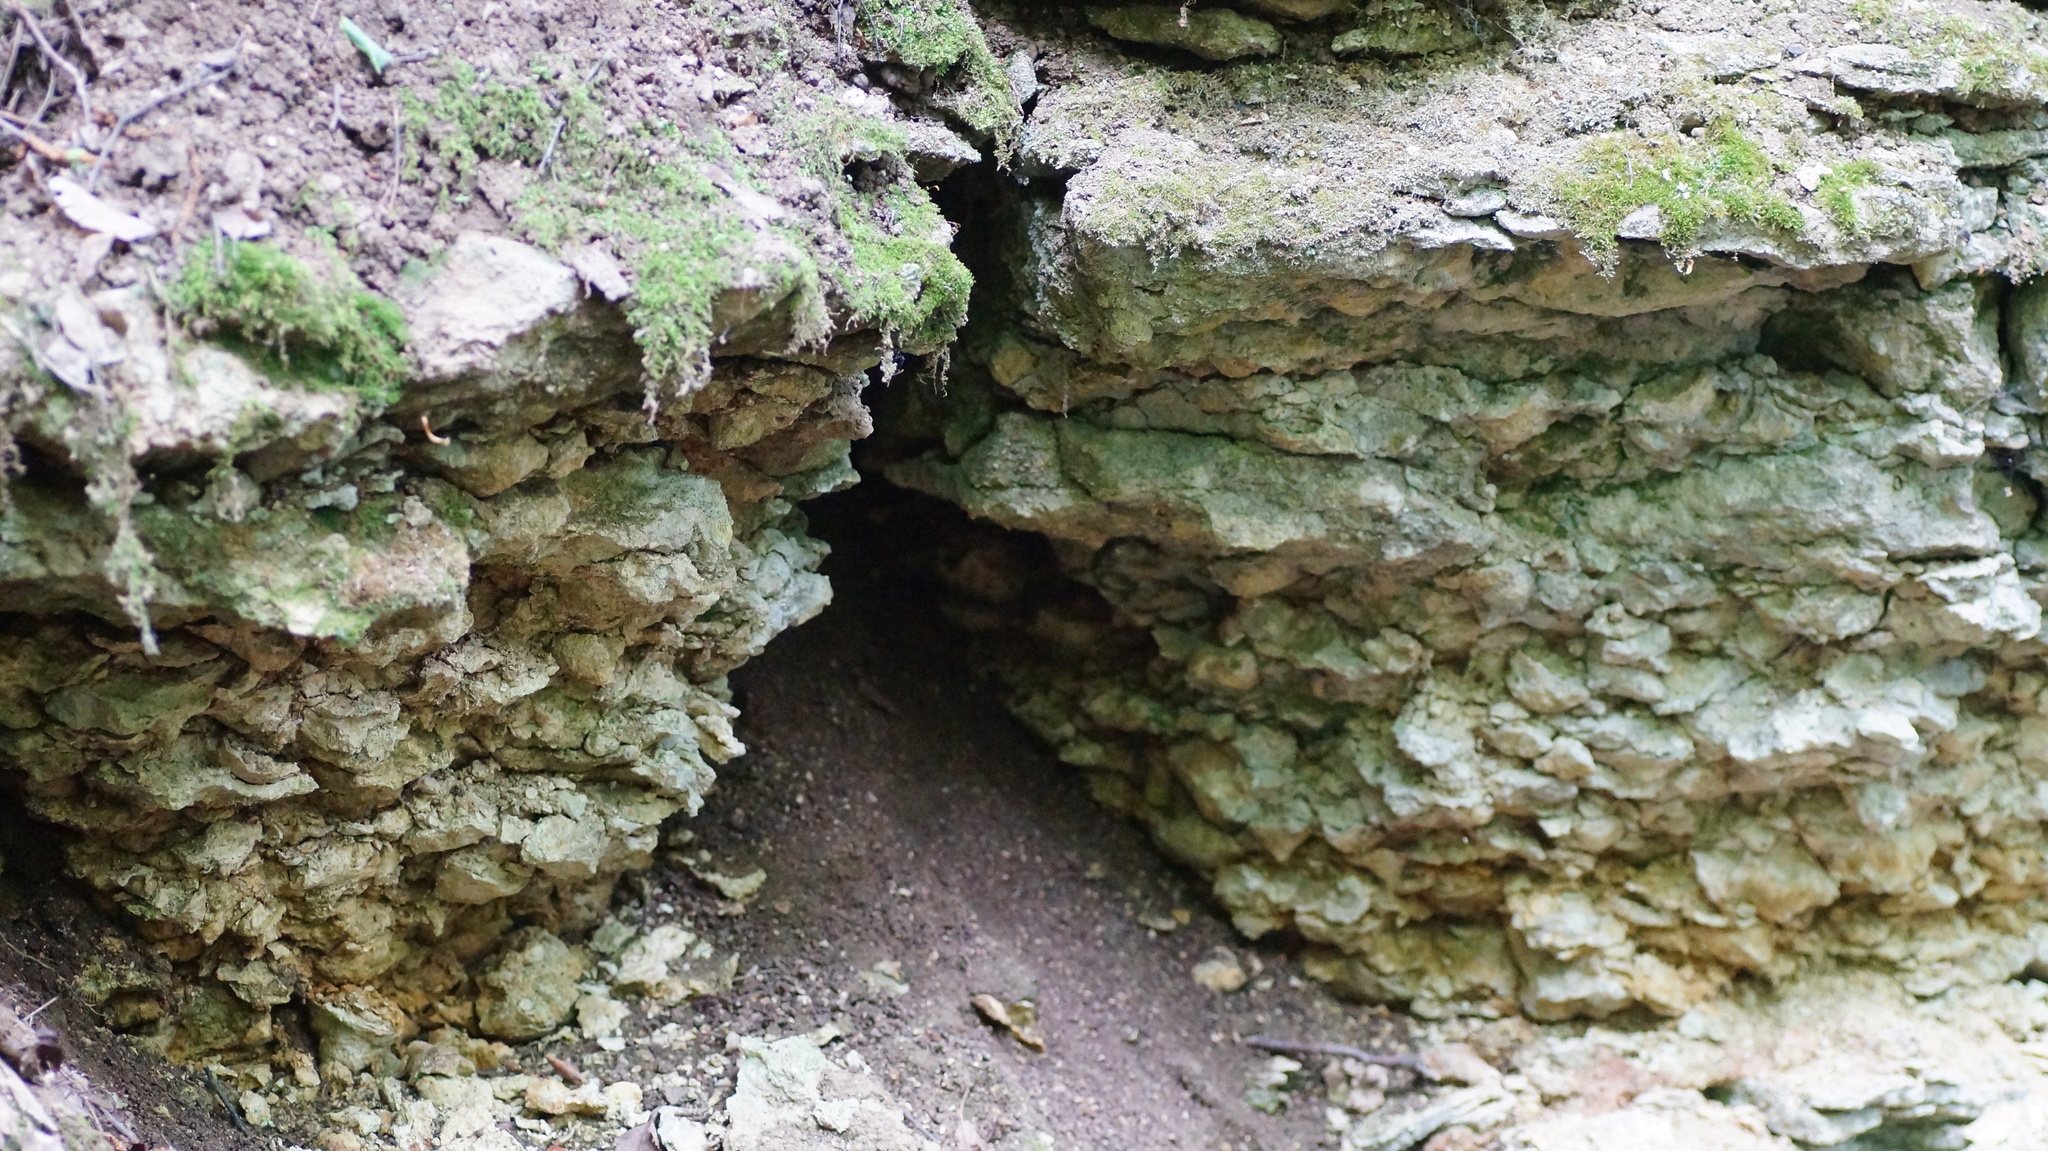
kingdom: Animalia
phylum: Arthropoda
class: Arachnida
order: Araneae
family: Nesticidae
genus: Nesticus
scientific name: Nesticus cellulanus
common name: Comb-footed cellar spider
